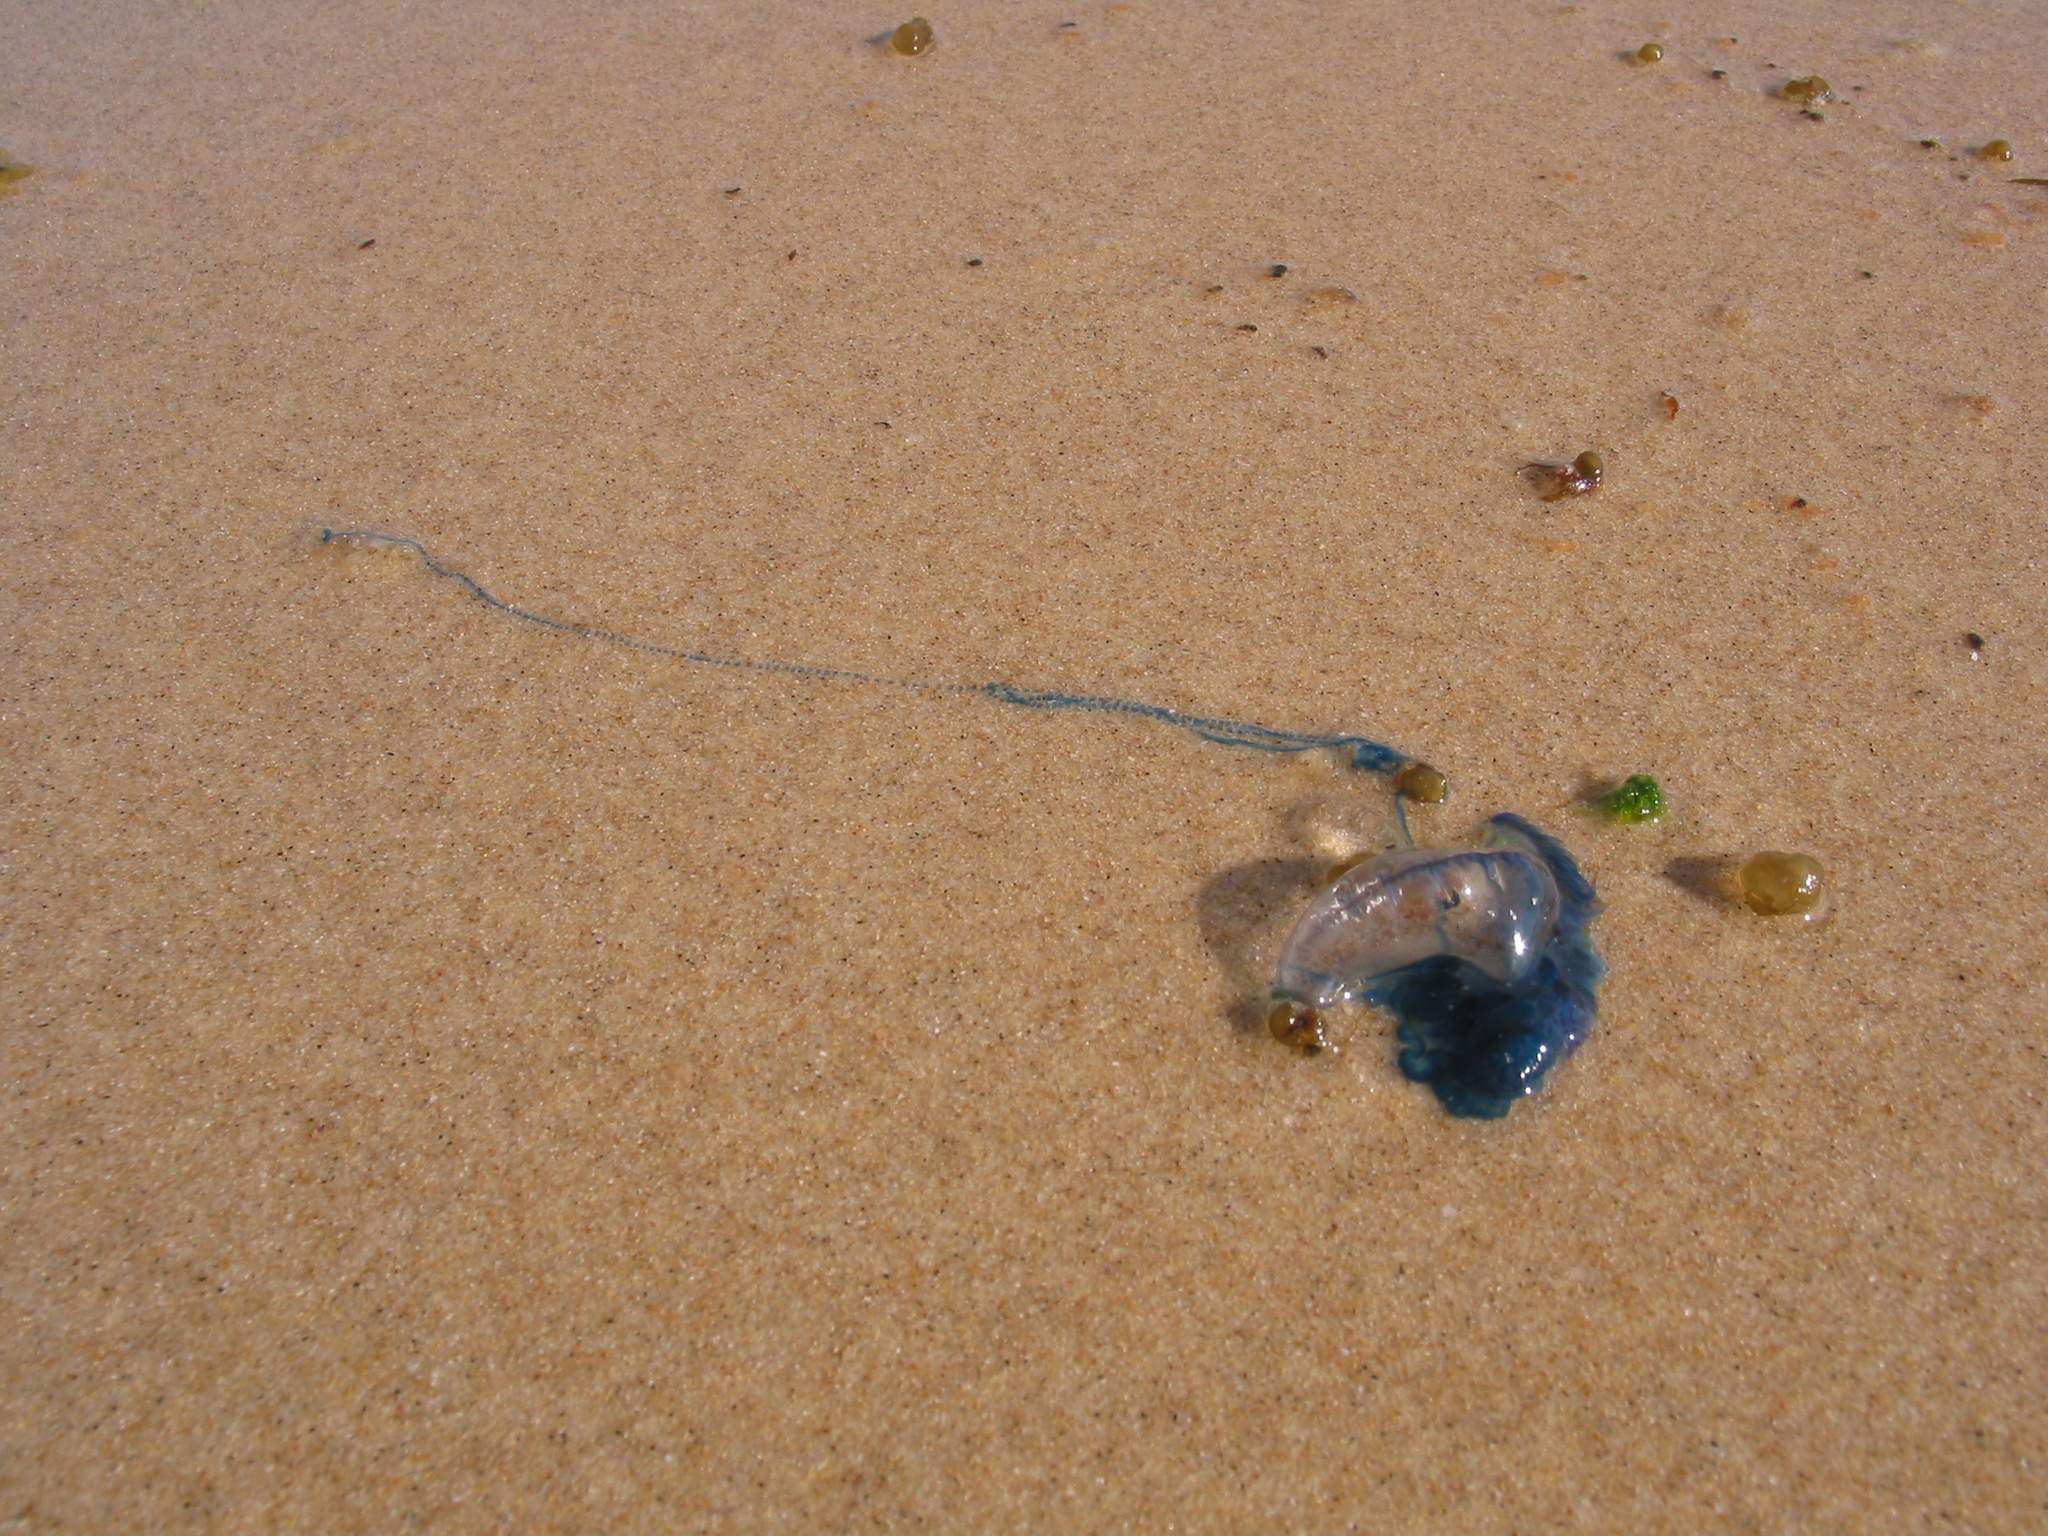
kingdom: Animalia
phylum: Cnidaria
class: Hydrozoa
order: Siphonophorae
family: Physaliidae
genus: Physalia
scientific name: Physalia physalis
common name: Portuguese man-of-war
